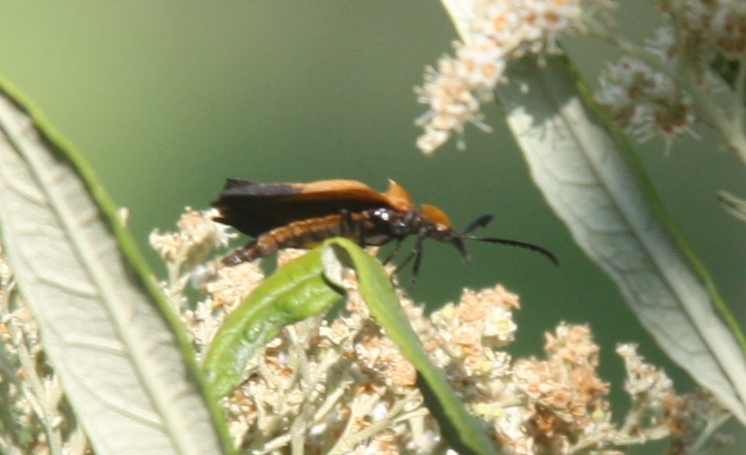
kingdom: Animalia
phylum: Arthropoda
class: Insecta
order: Coleoptera
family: Lycidae
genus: Lycus
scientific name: Lycus
